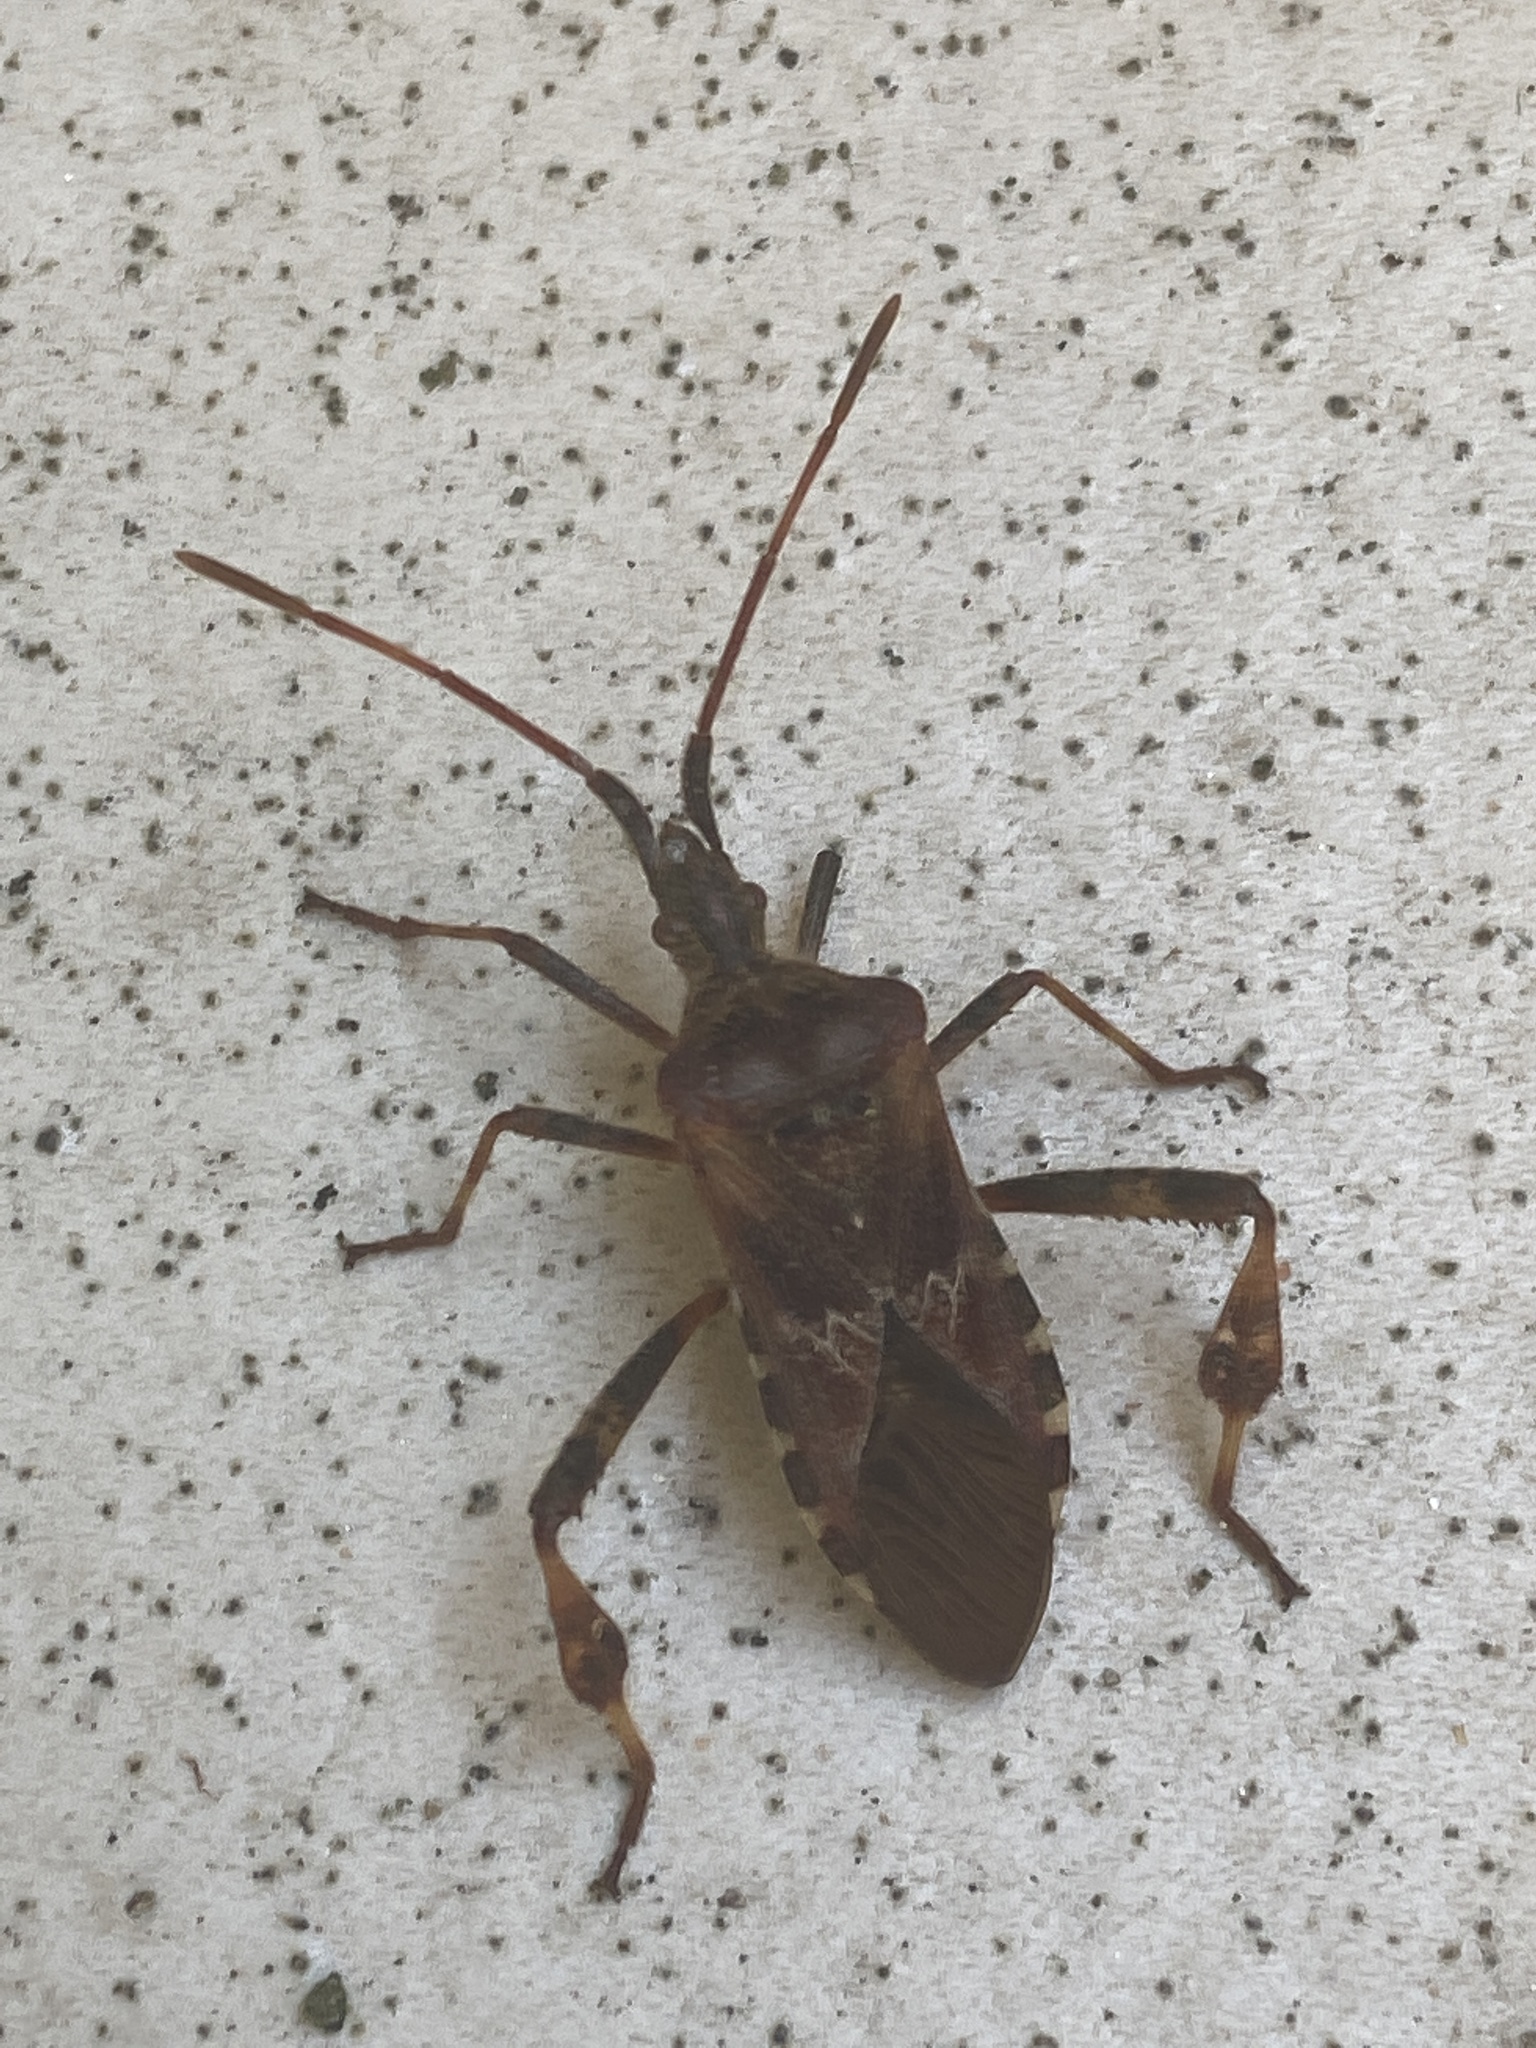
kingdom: Animalia
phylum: Arthropoda
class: Insecta
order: Hemiptera
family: Coreidae
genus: Leptoglossus
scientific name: Leptoglossus occidentalis
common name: Western conifer-seed bug
